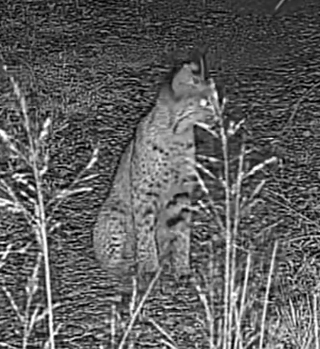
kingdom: Animalia
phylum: Chordata
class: Mammalia
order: Carnivora
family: Felidae
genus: Lynx
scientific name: Lynx rufus
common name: Bobcat
